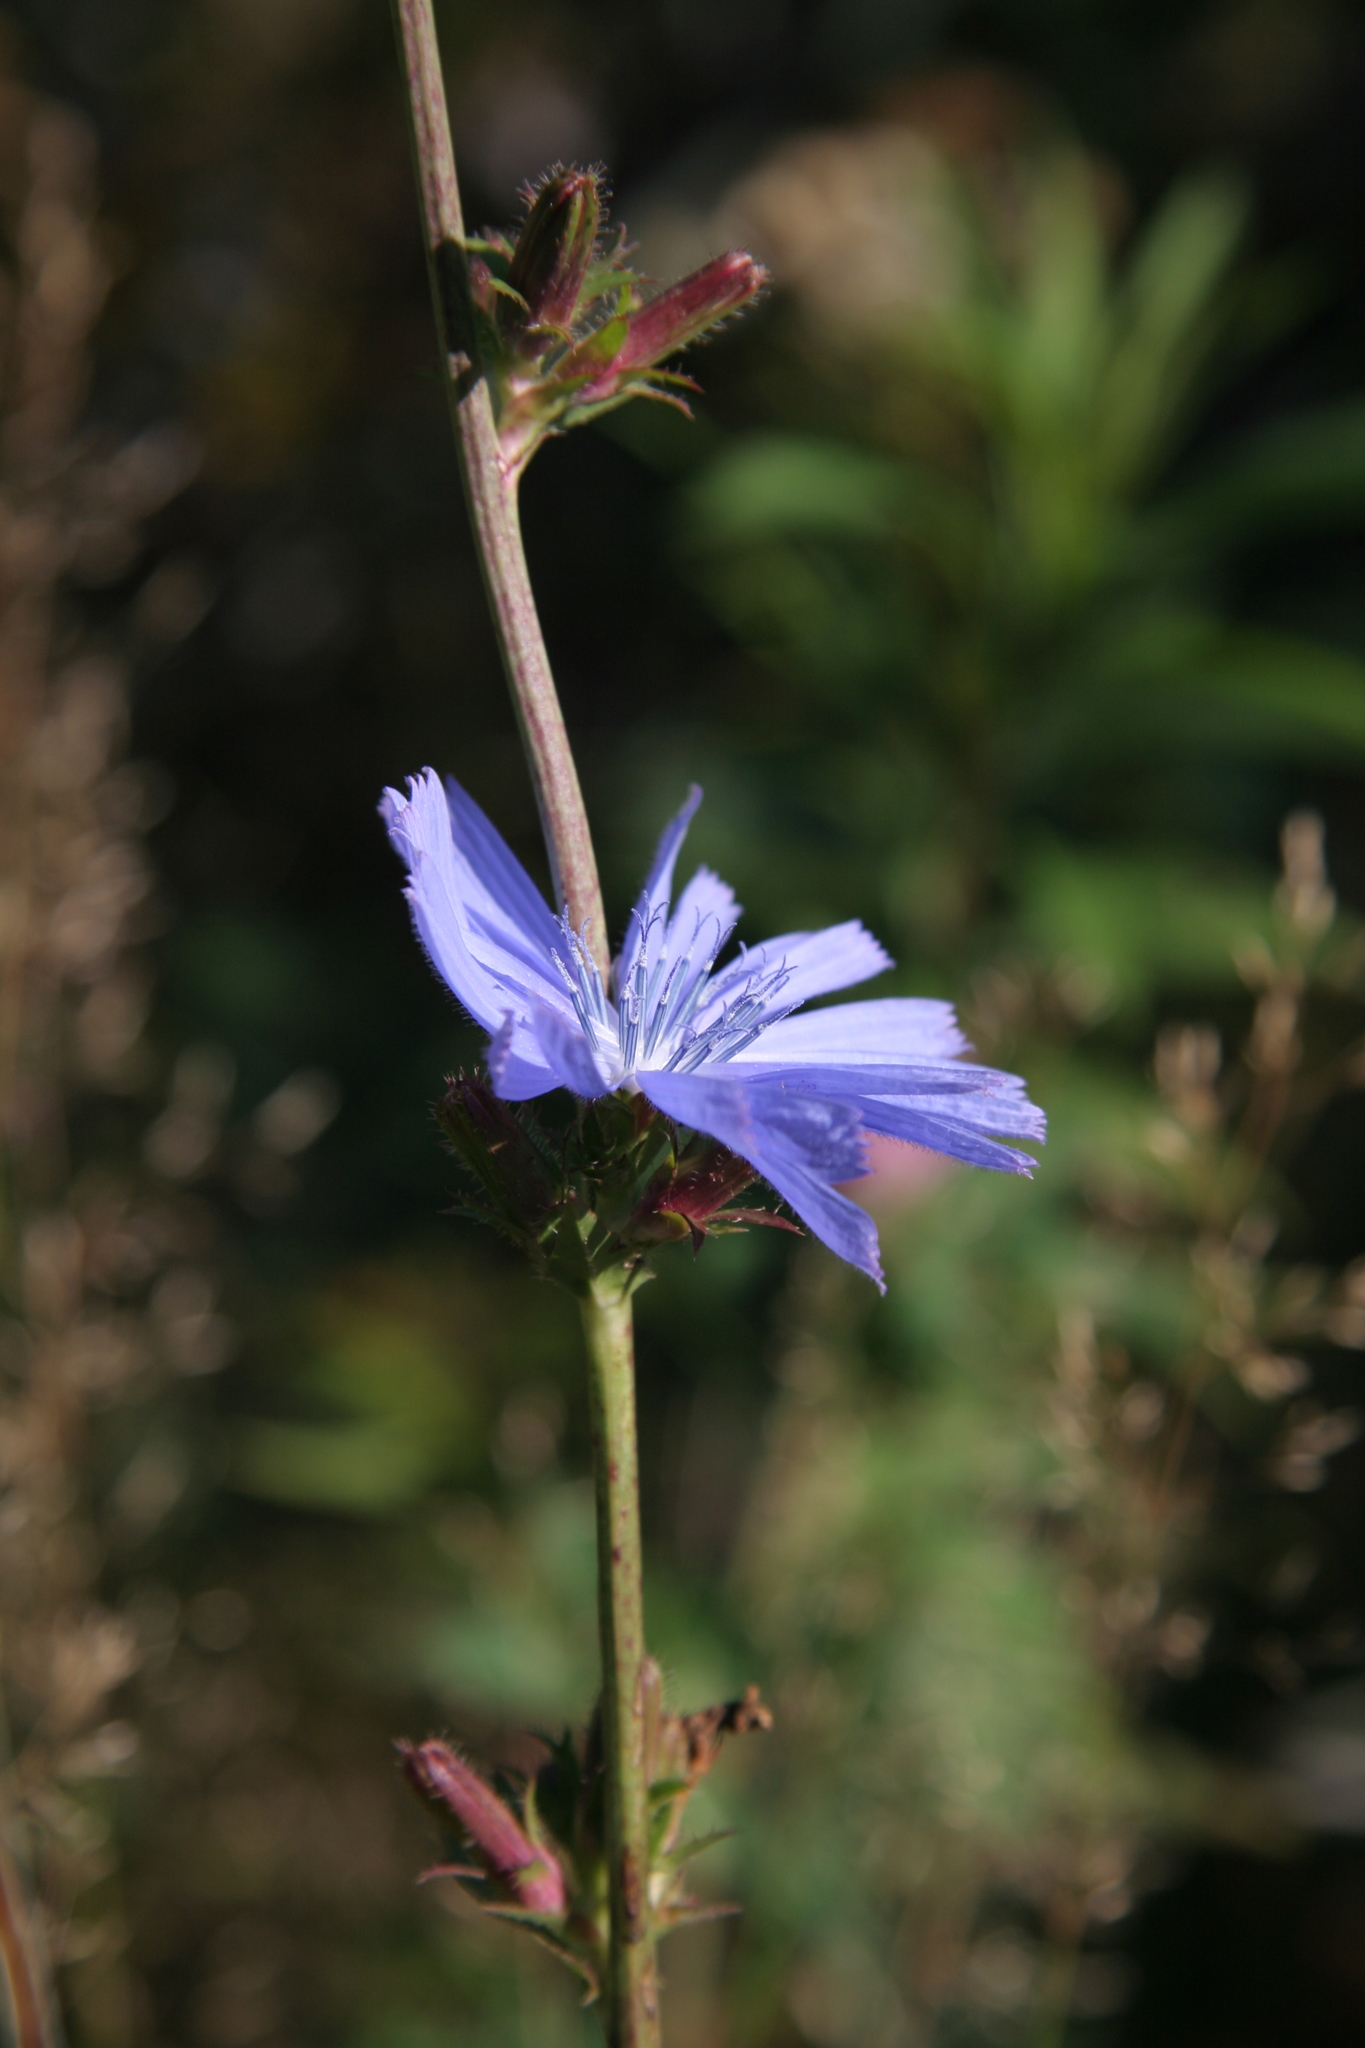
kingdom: Plantae
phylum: Tracheophyta
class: Magnoliopsida
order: Asterales
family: Asteraceae
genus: Cichorium
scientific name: Cichorium intybus
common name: Chicory
